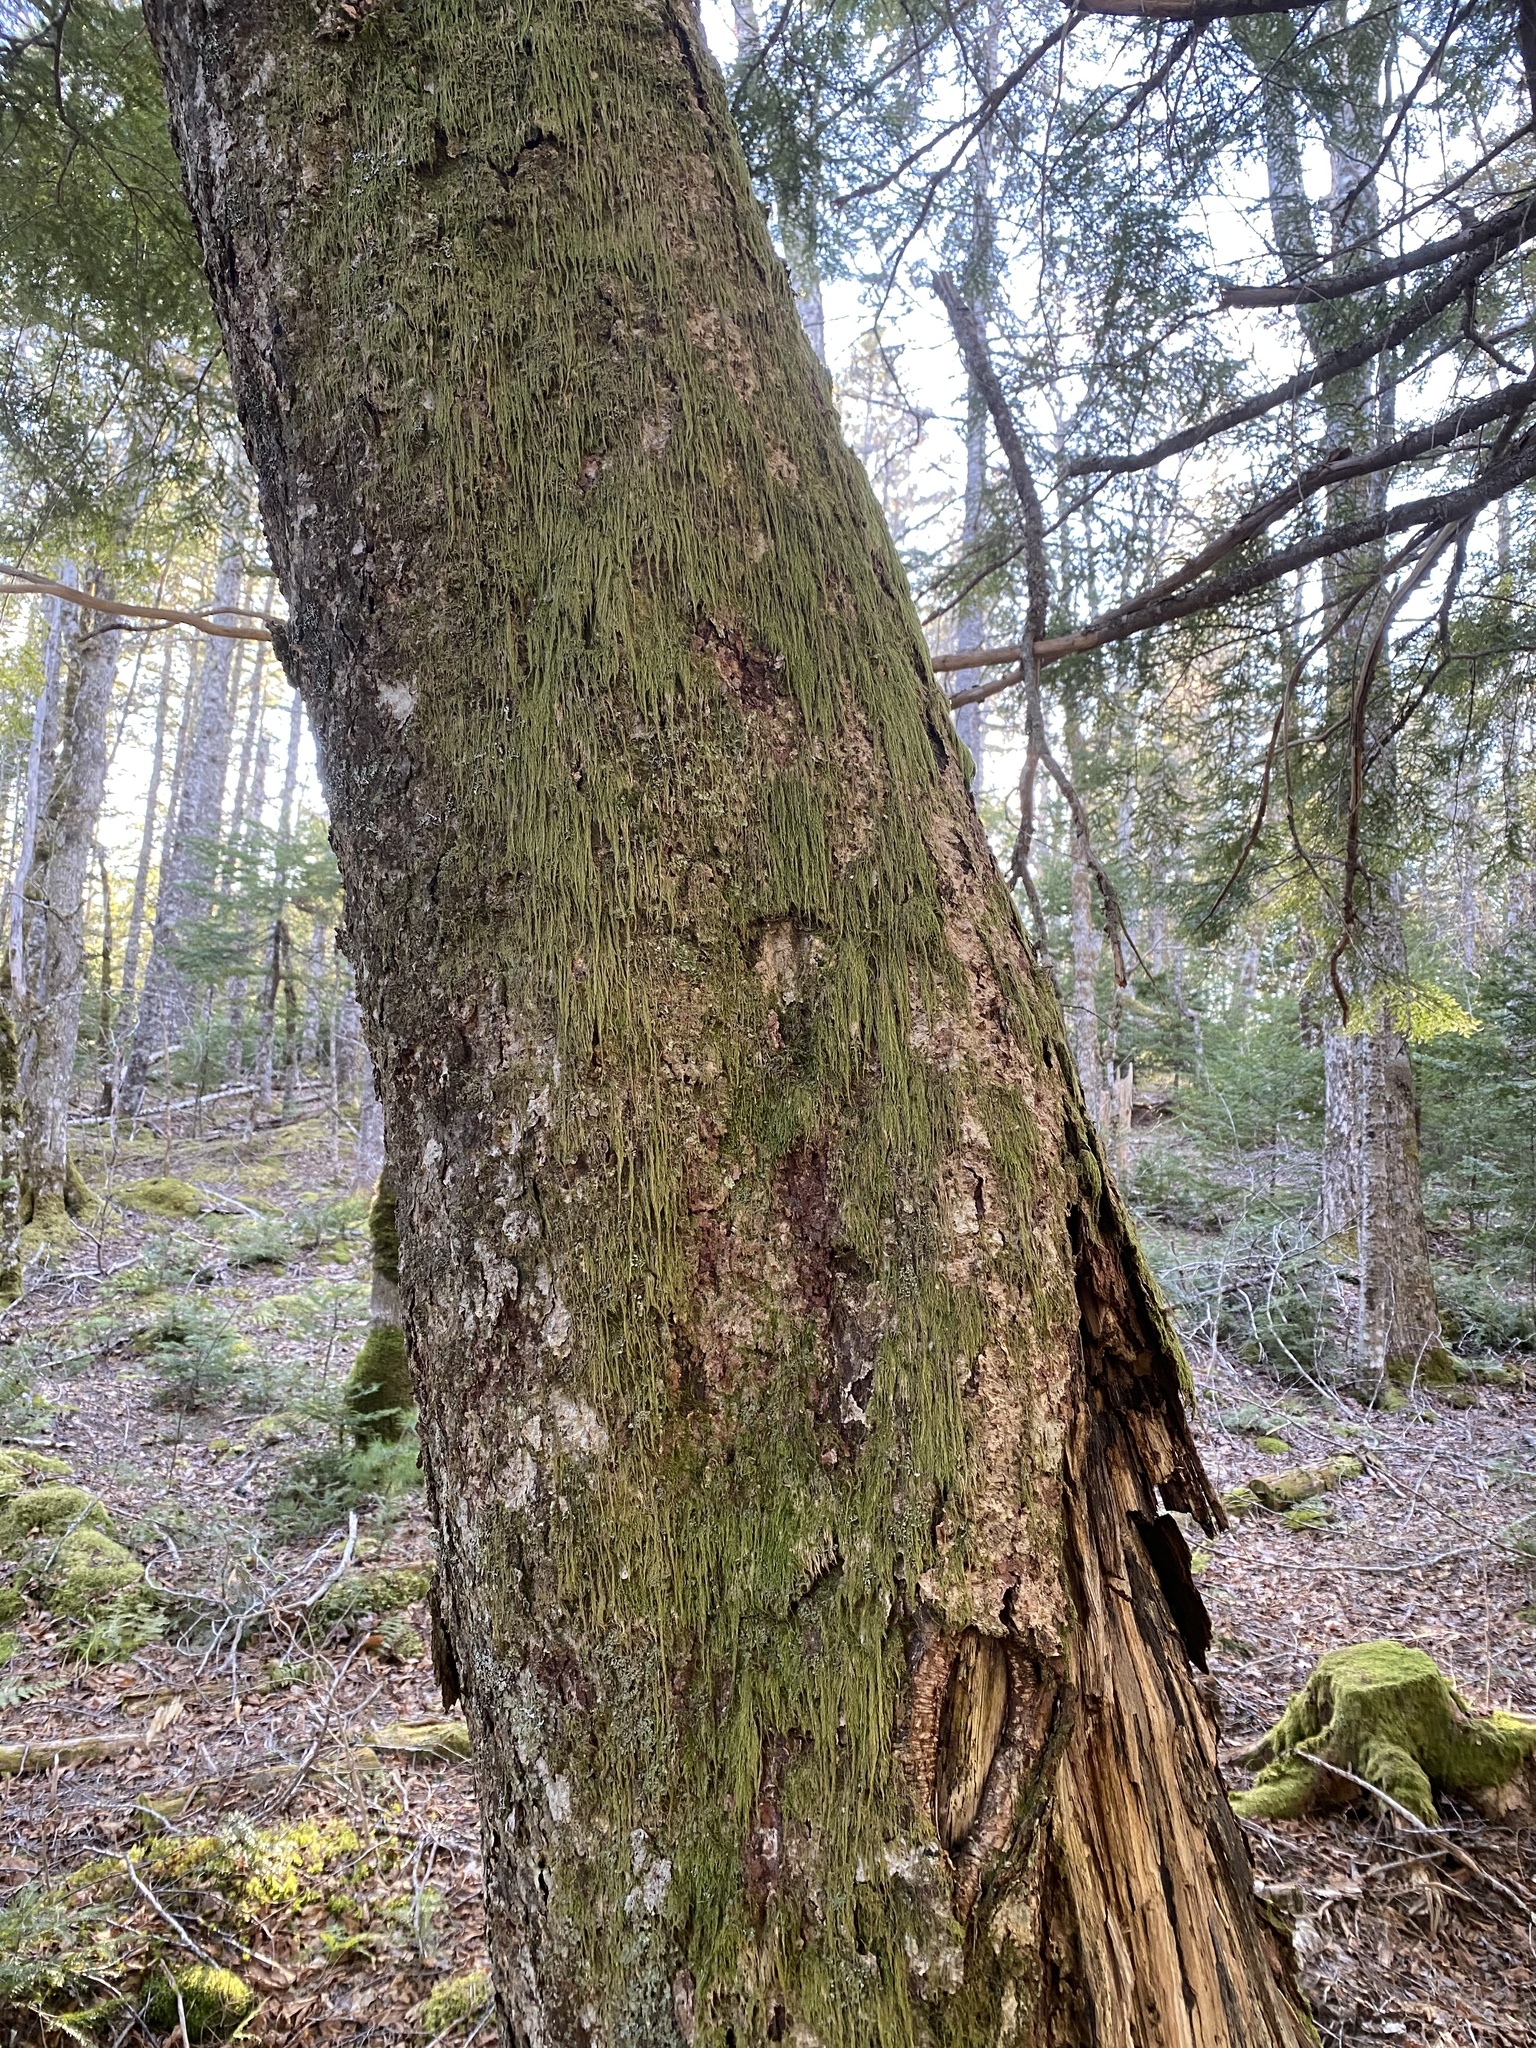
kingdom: Plantae
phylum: Bryophyta
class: Bryopsida
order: Hypnales
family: Hypnaceae
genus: Hypnum
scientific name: Hypnum cupressiforme
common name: Cypress-leaved plait-moss
